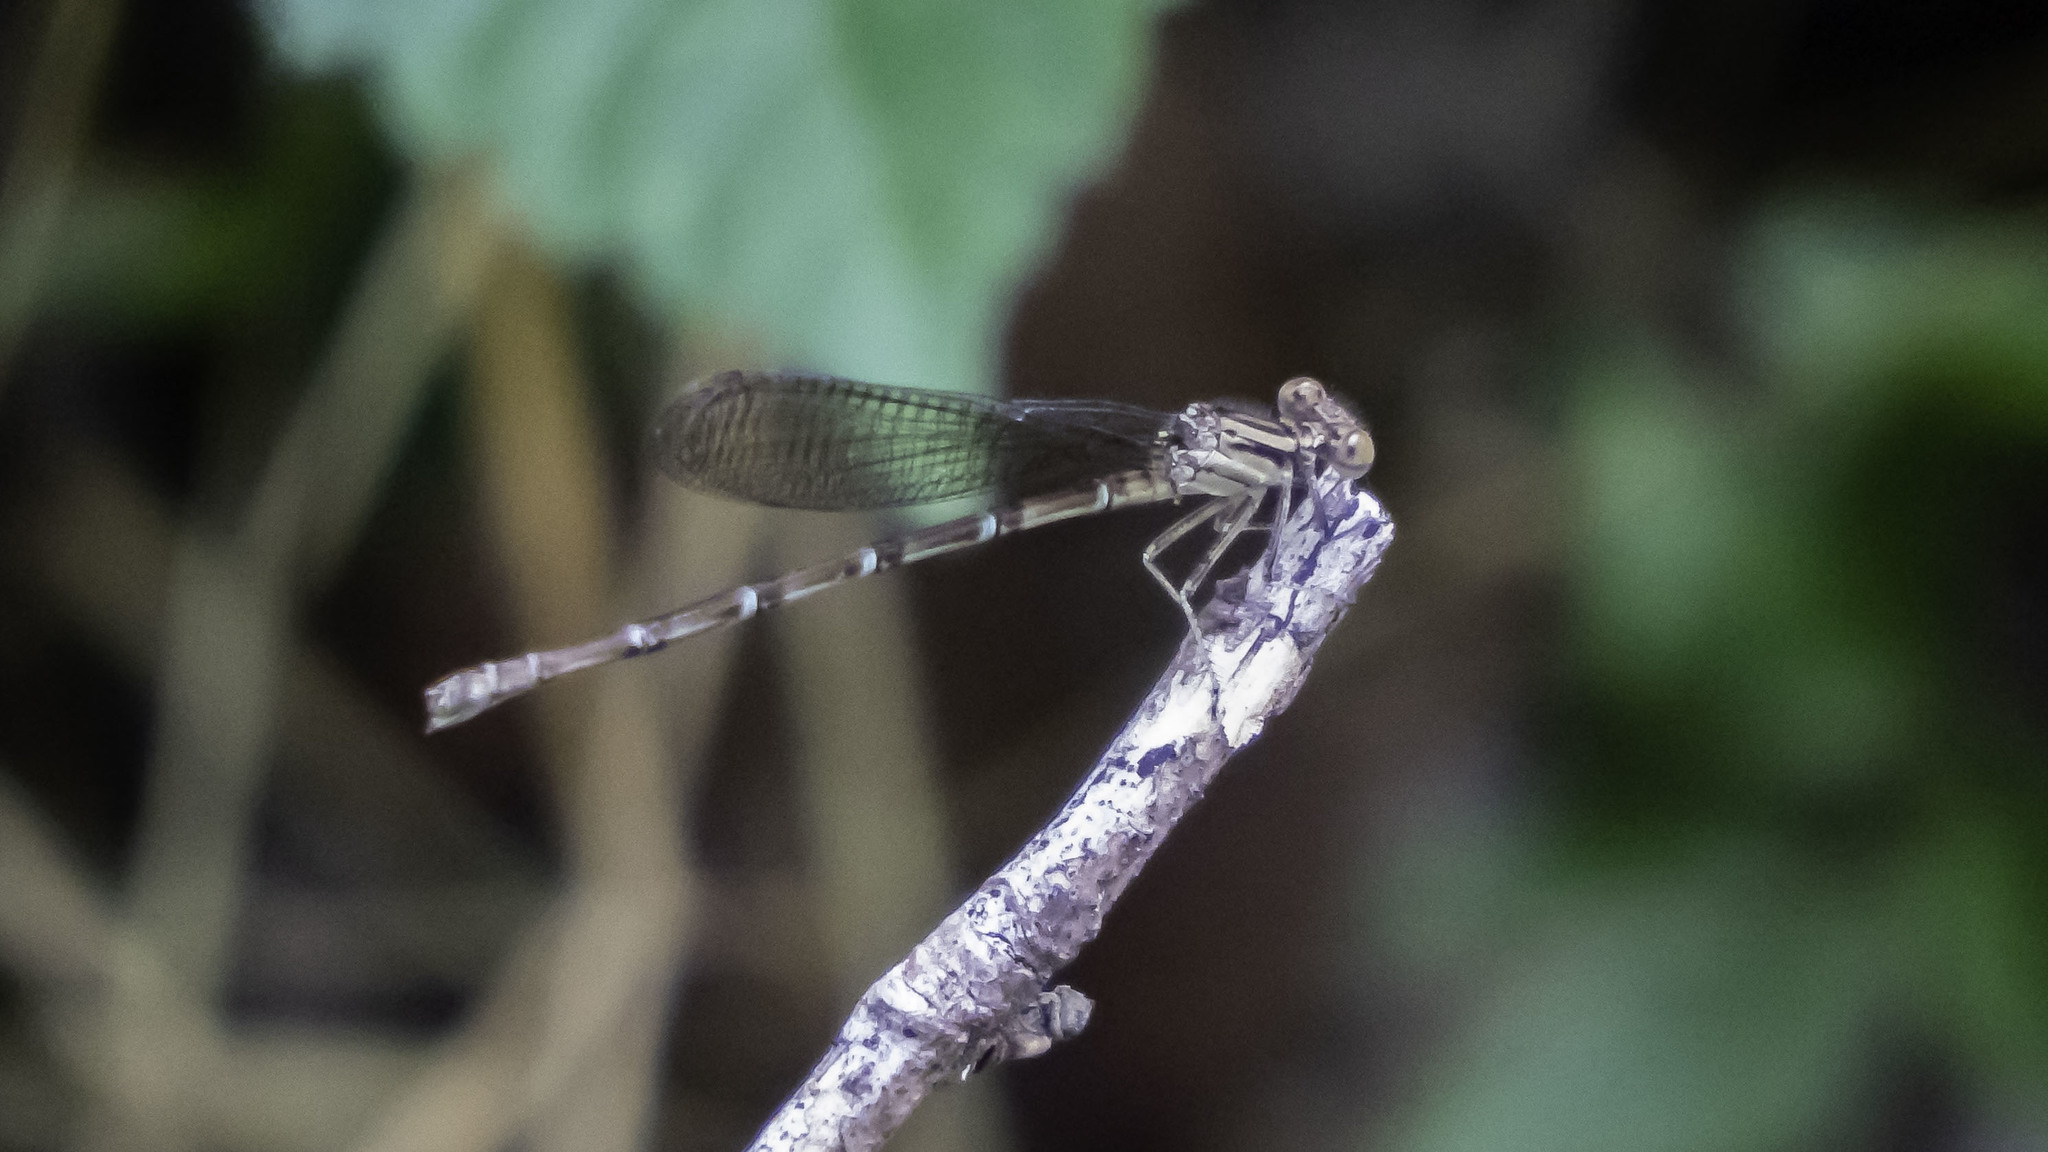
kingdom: Animalia
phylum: Arthropoda
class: Insecta
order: Odonata
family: Coenagrionidae
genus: Argia
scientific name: Argia sedula
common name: Blue-ringed dancer
